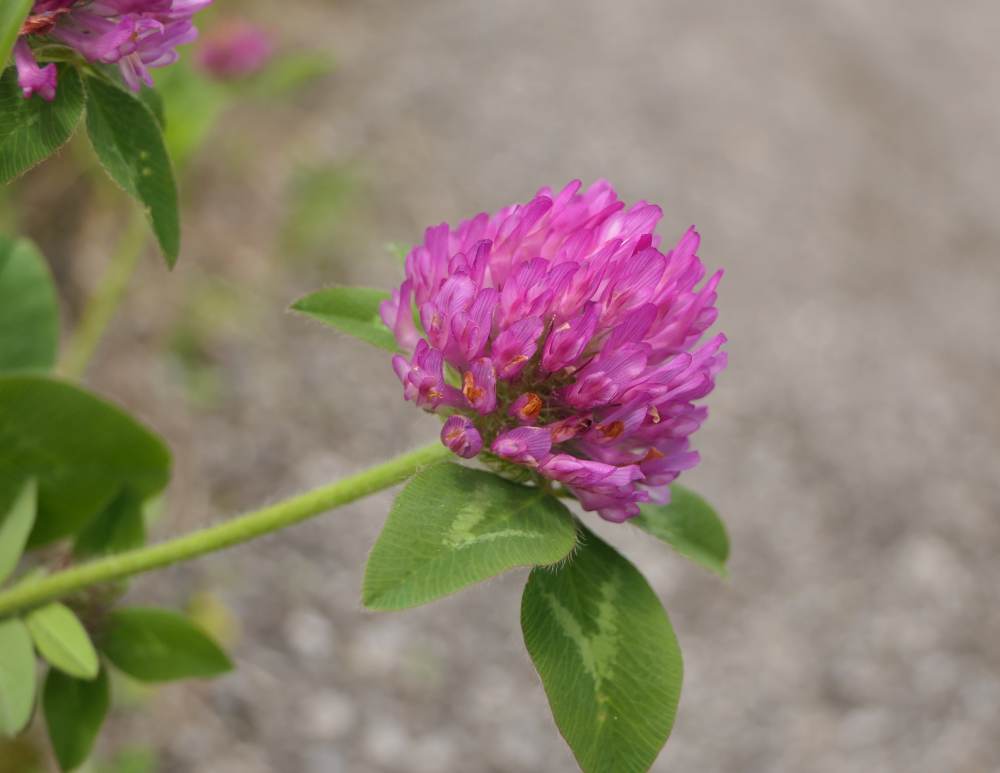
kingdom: Plantae
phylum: Tracheophyta
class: Magnoliopsida
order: Fabales
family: Fabaceae
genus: Trifolium
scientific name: Trifolium pratense
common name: Red clover
